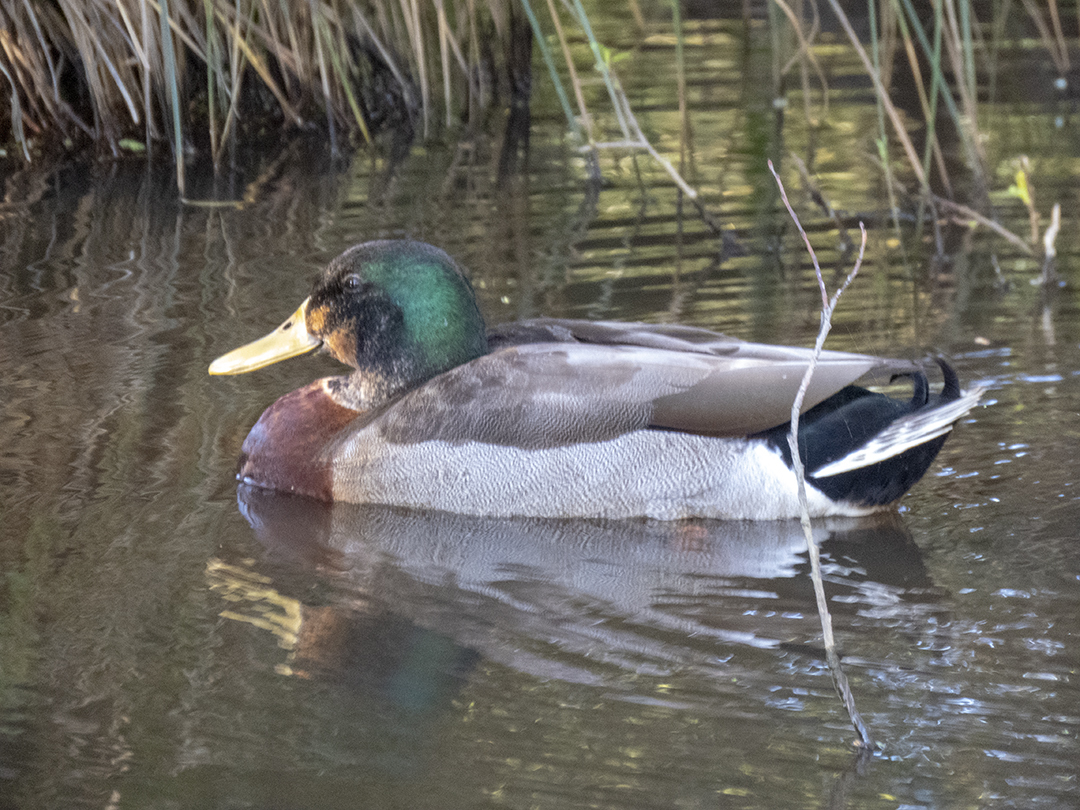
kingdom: Animalia
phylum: Chordata
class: Aves
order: Anseriformes
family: Anatidae
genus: Anas
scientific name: Anas platyrhynchos
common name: Mallard
